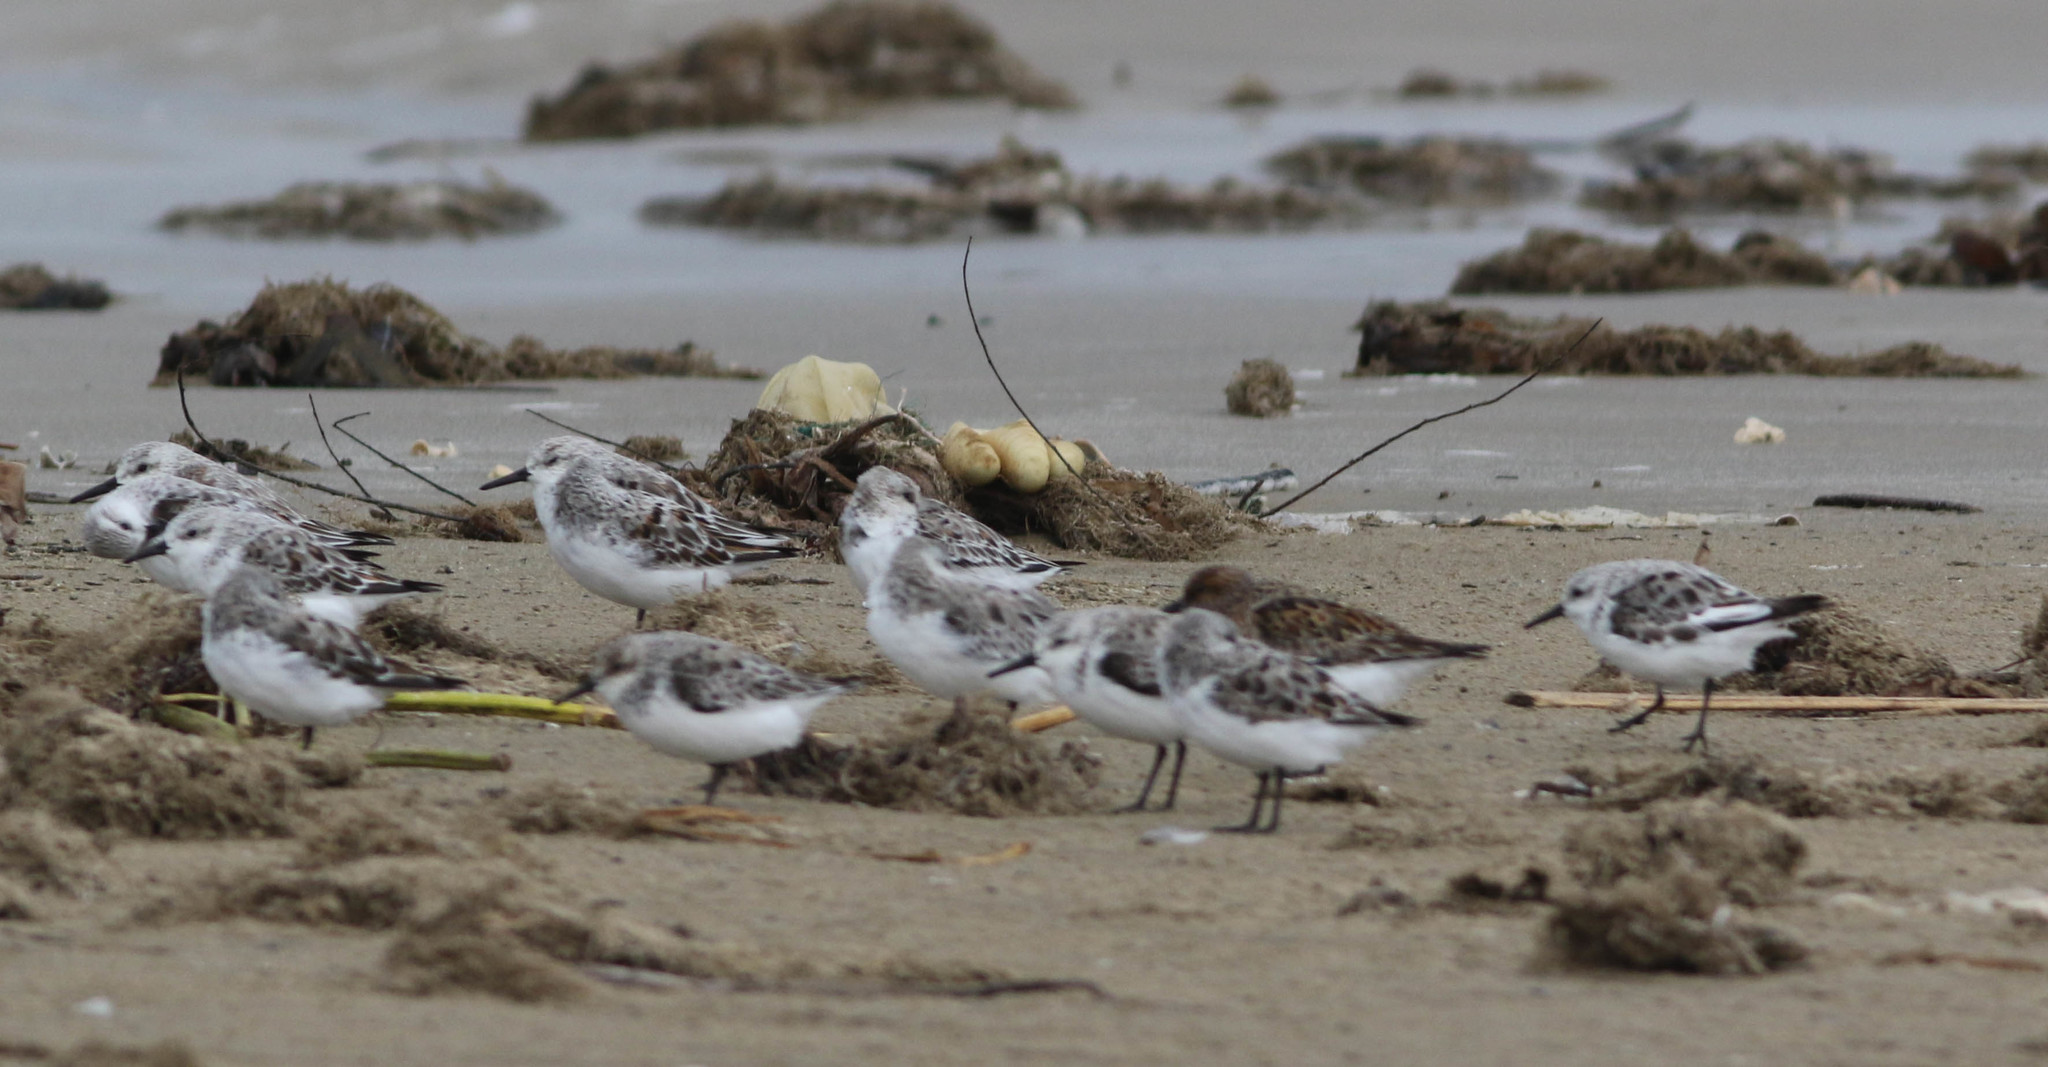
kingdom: Animalia
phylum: Chordata
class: Aves
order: Charadriiformes
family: Scolopacidae
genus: Calidris
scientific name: Calidris alba
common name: Sanderling
